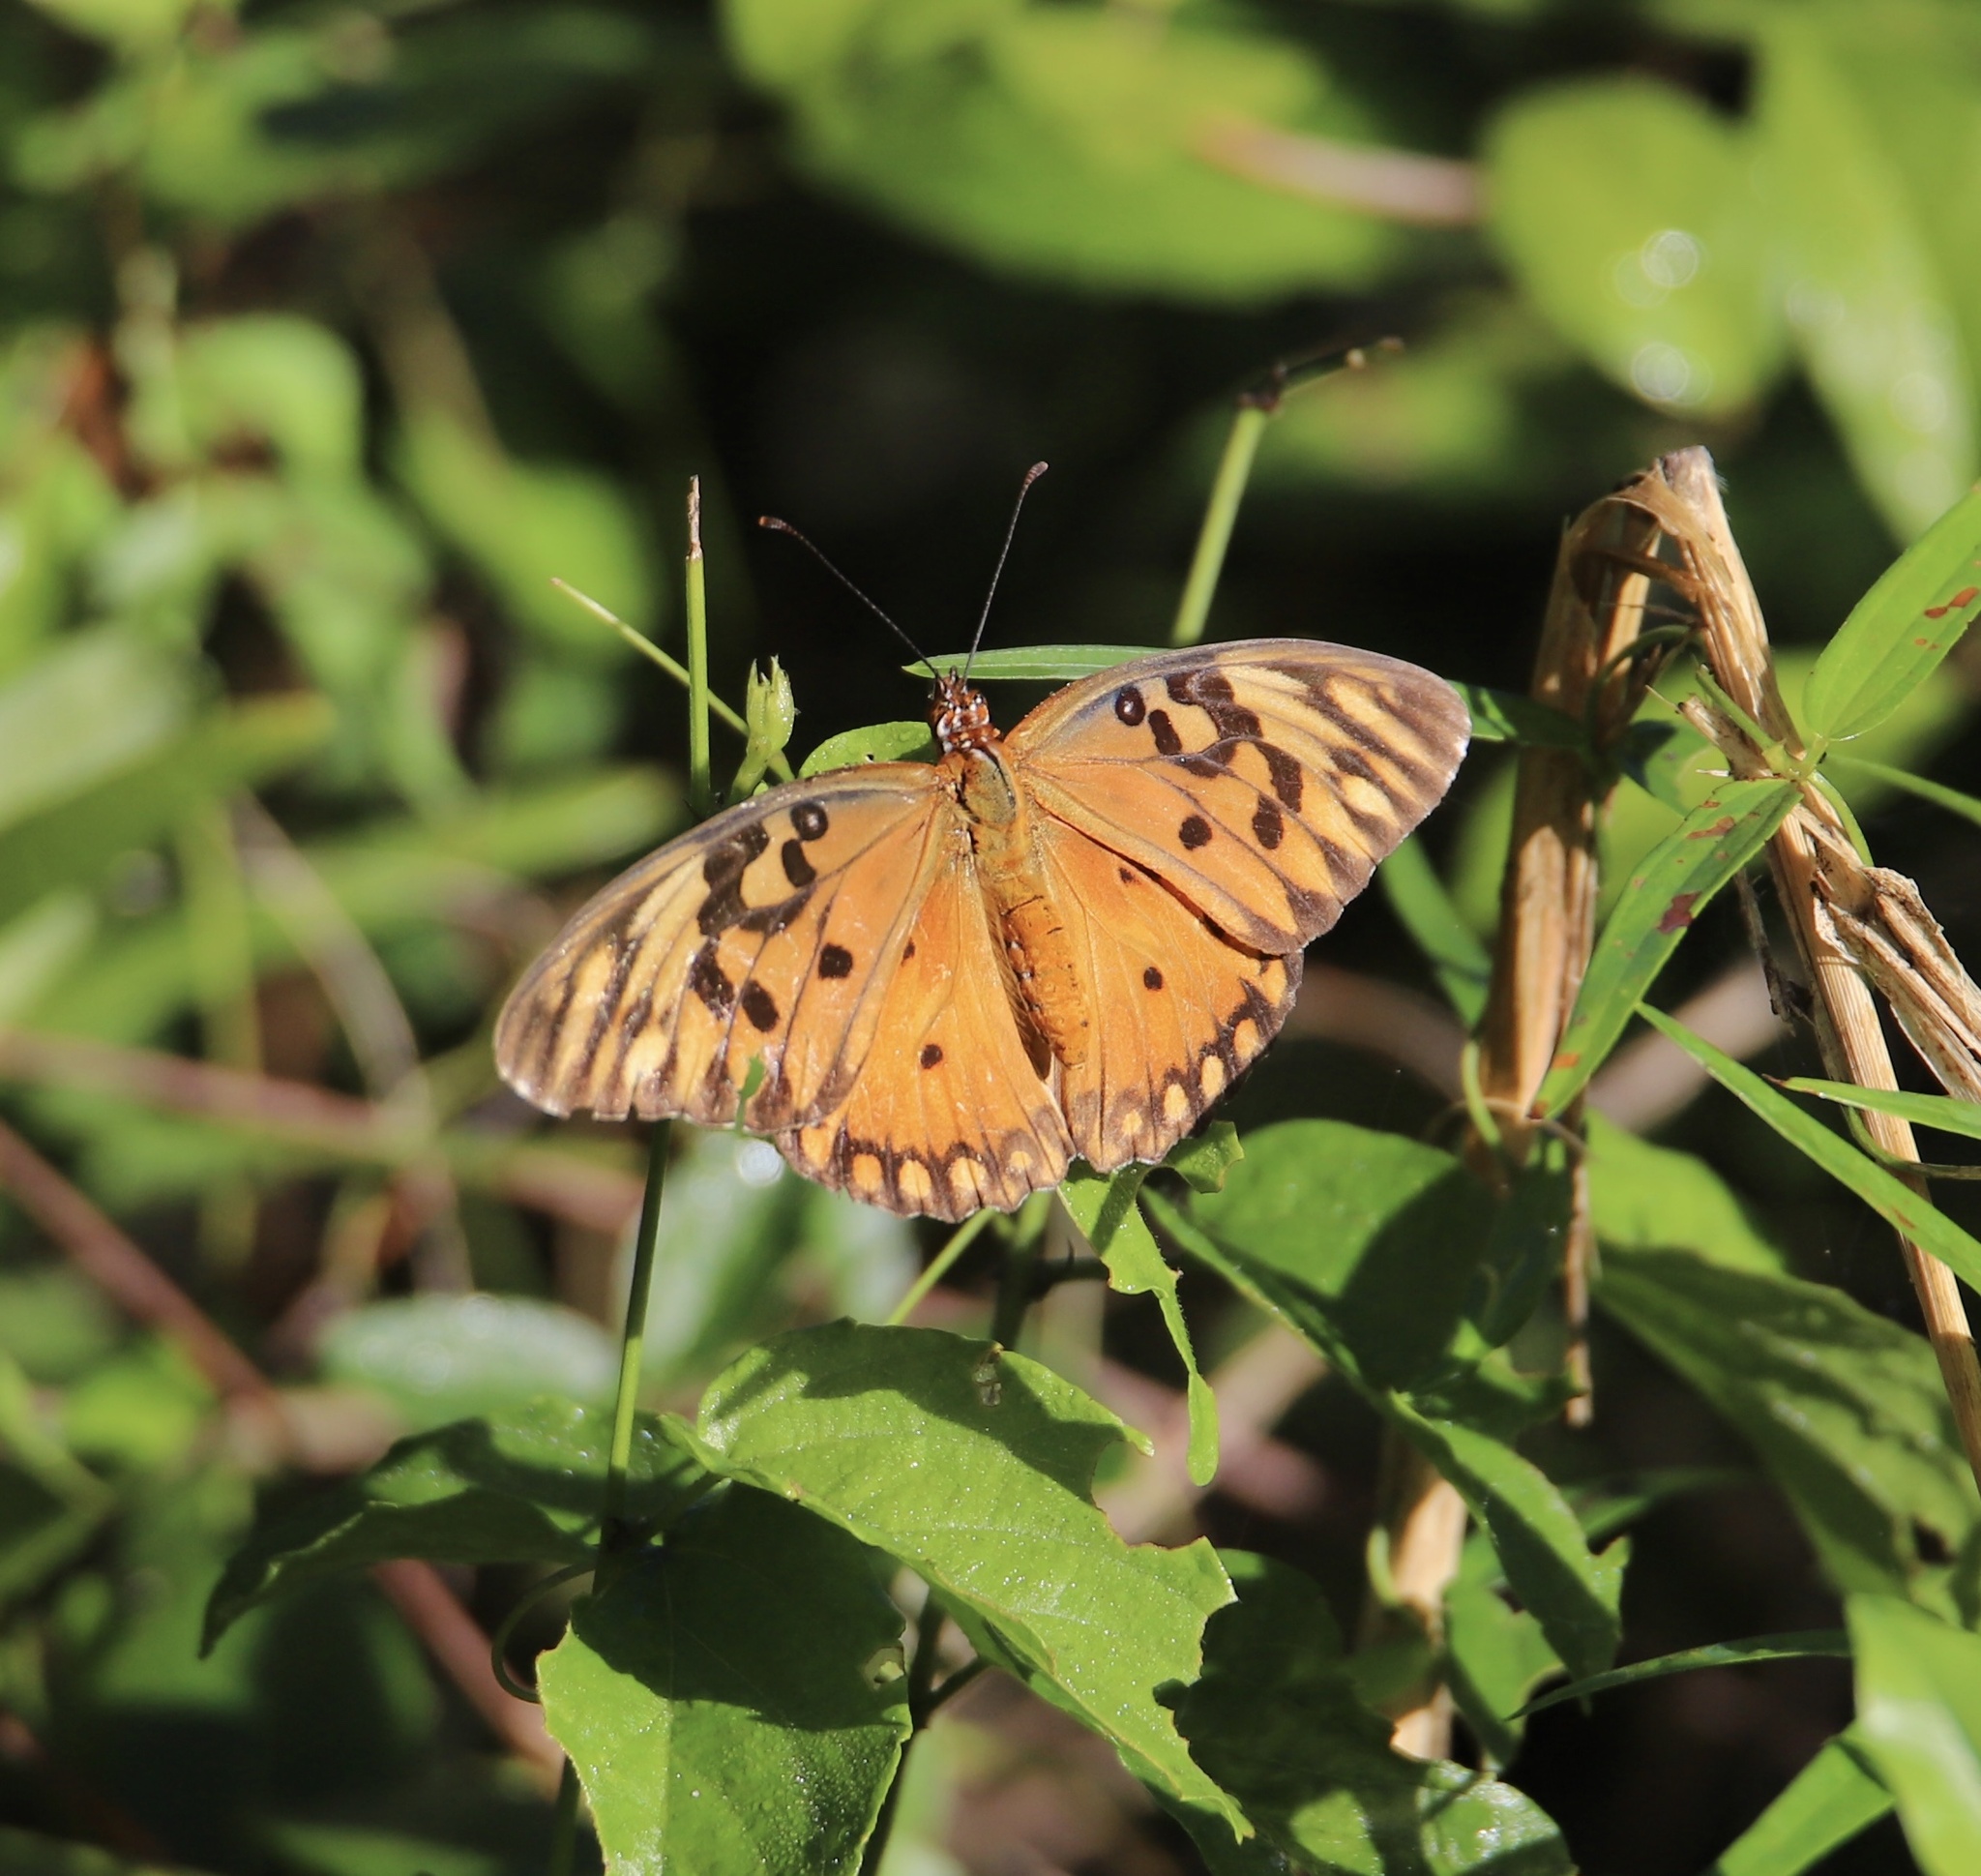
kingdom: Animalia
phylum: Arthropoda
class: Insecta
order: Lepidoptera
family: Nymphalidae
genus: Dione
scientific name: Dione vanillae
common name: Gulf fritillary
